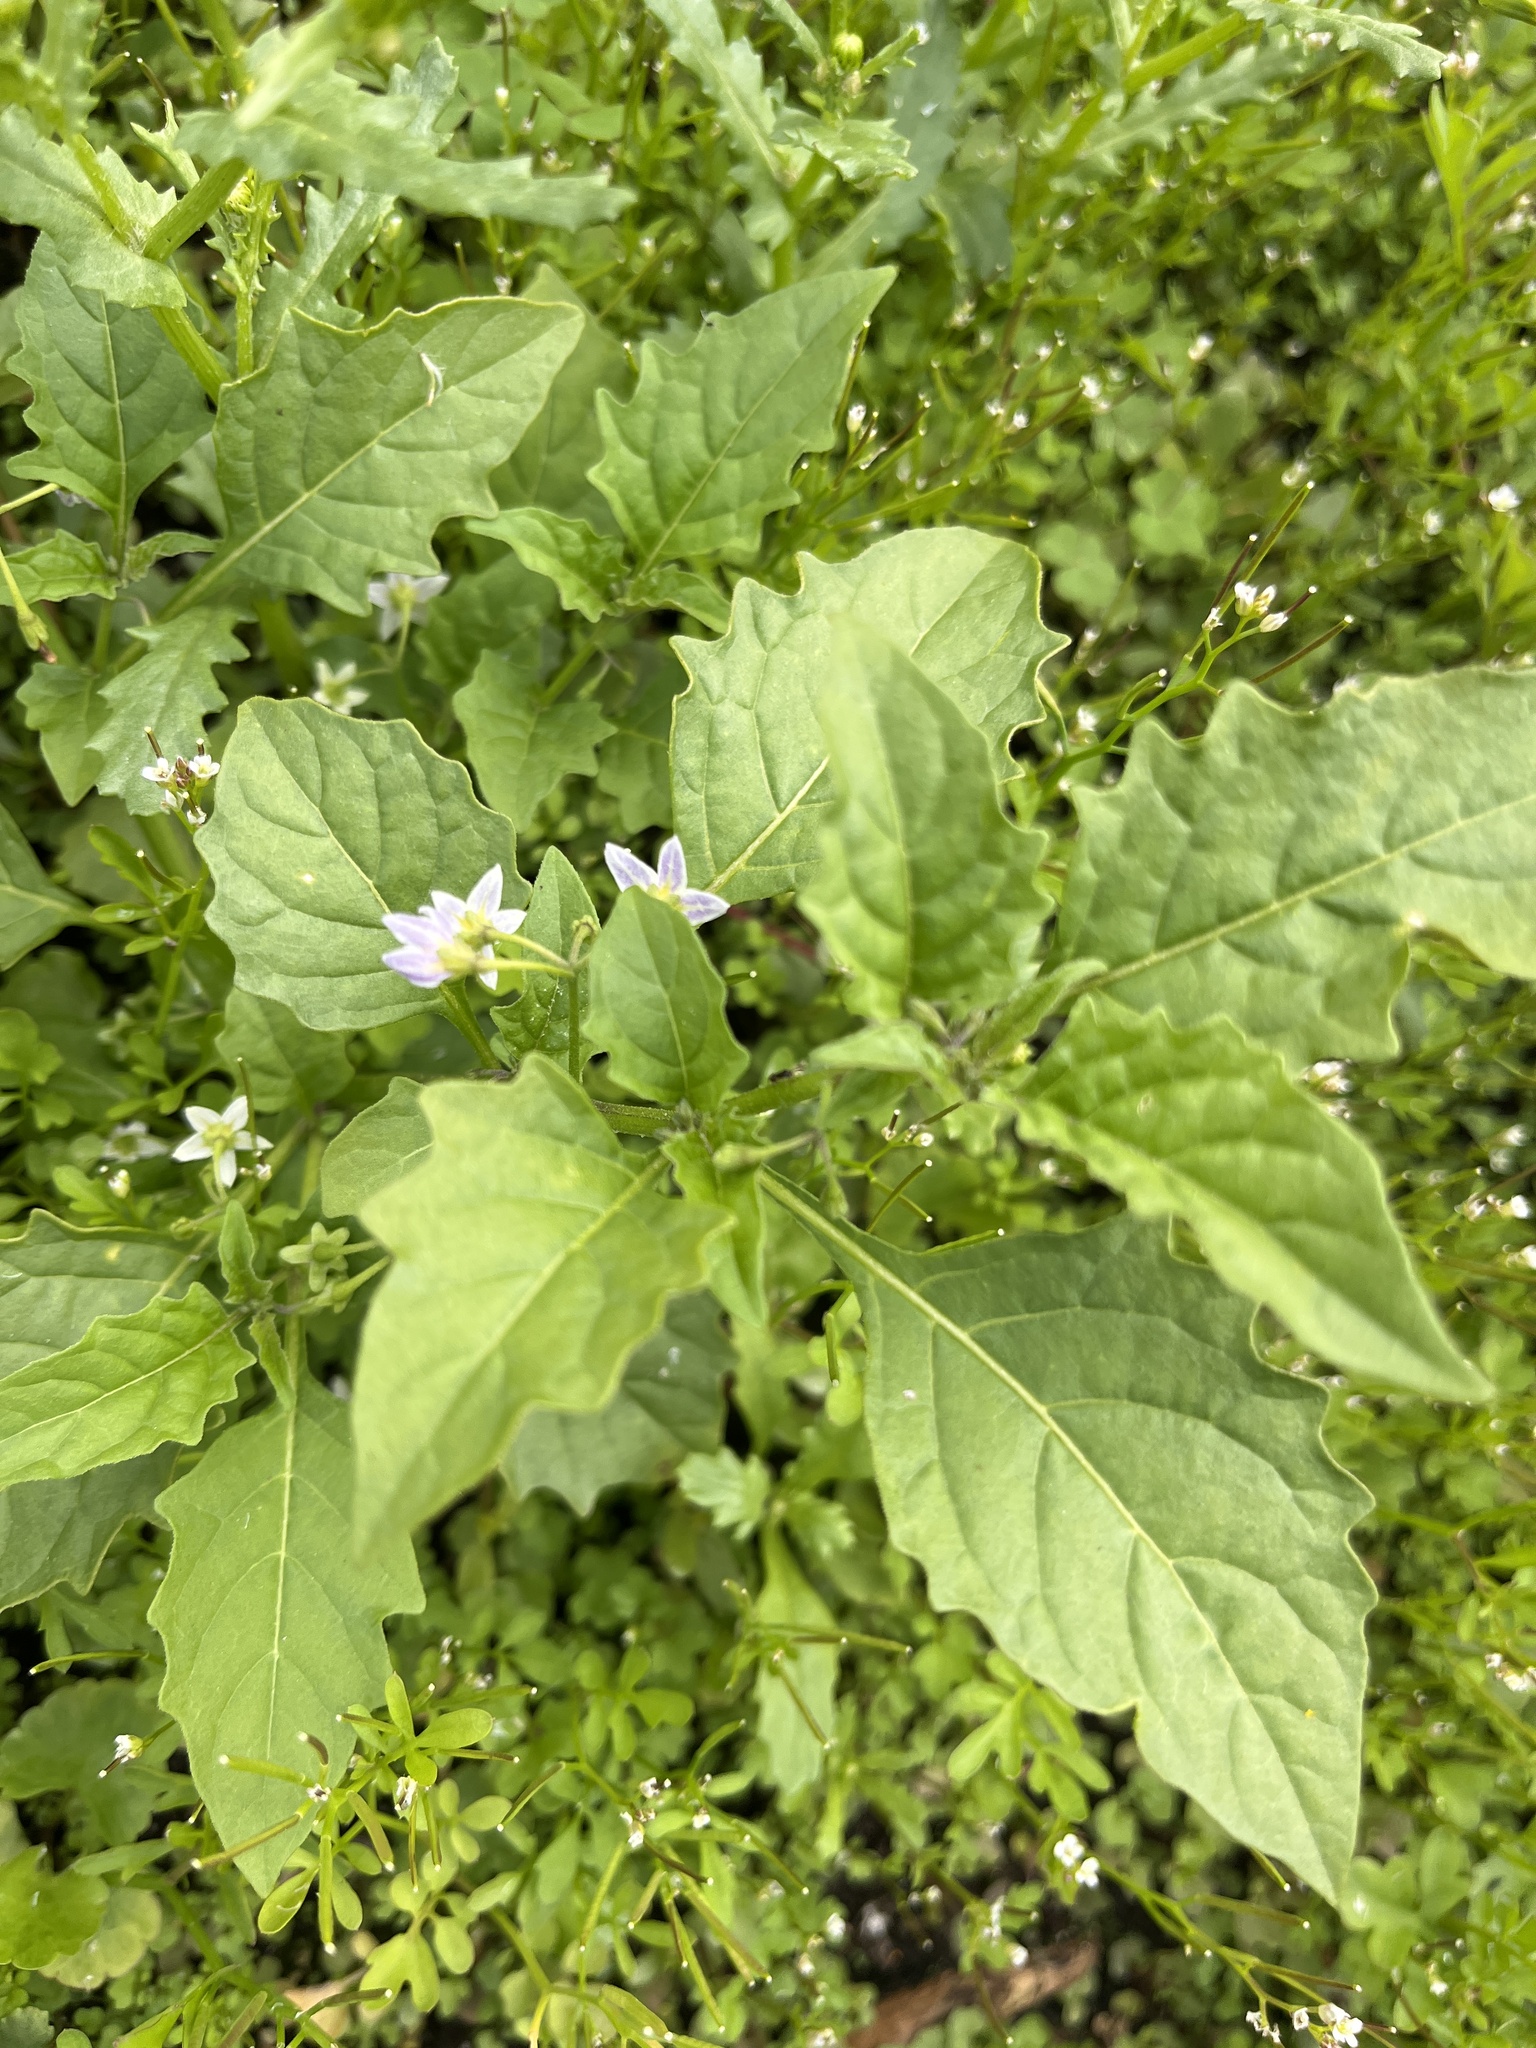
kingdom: Plantae
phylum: Tracheophyta
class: Magnoliopsida
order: Solanales
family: Solanaceae
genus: Solanum
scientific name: Solanum emulans
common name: Eastern black nightshade
